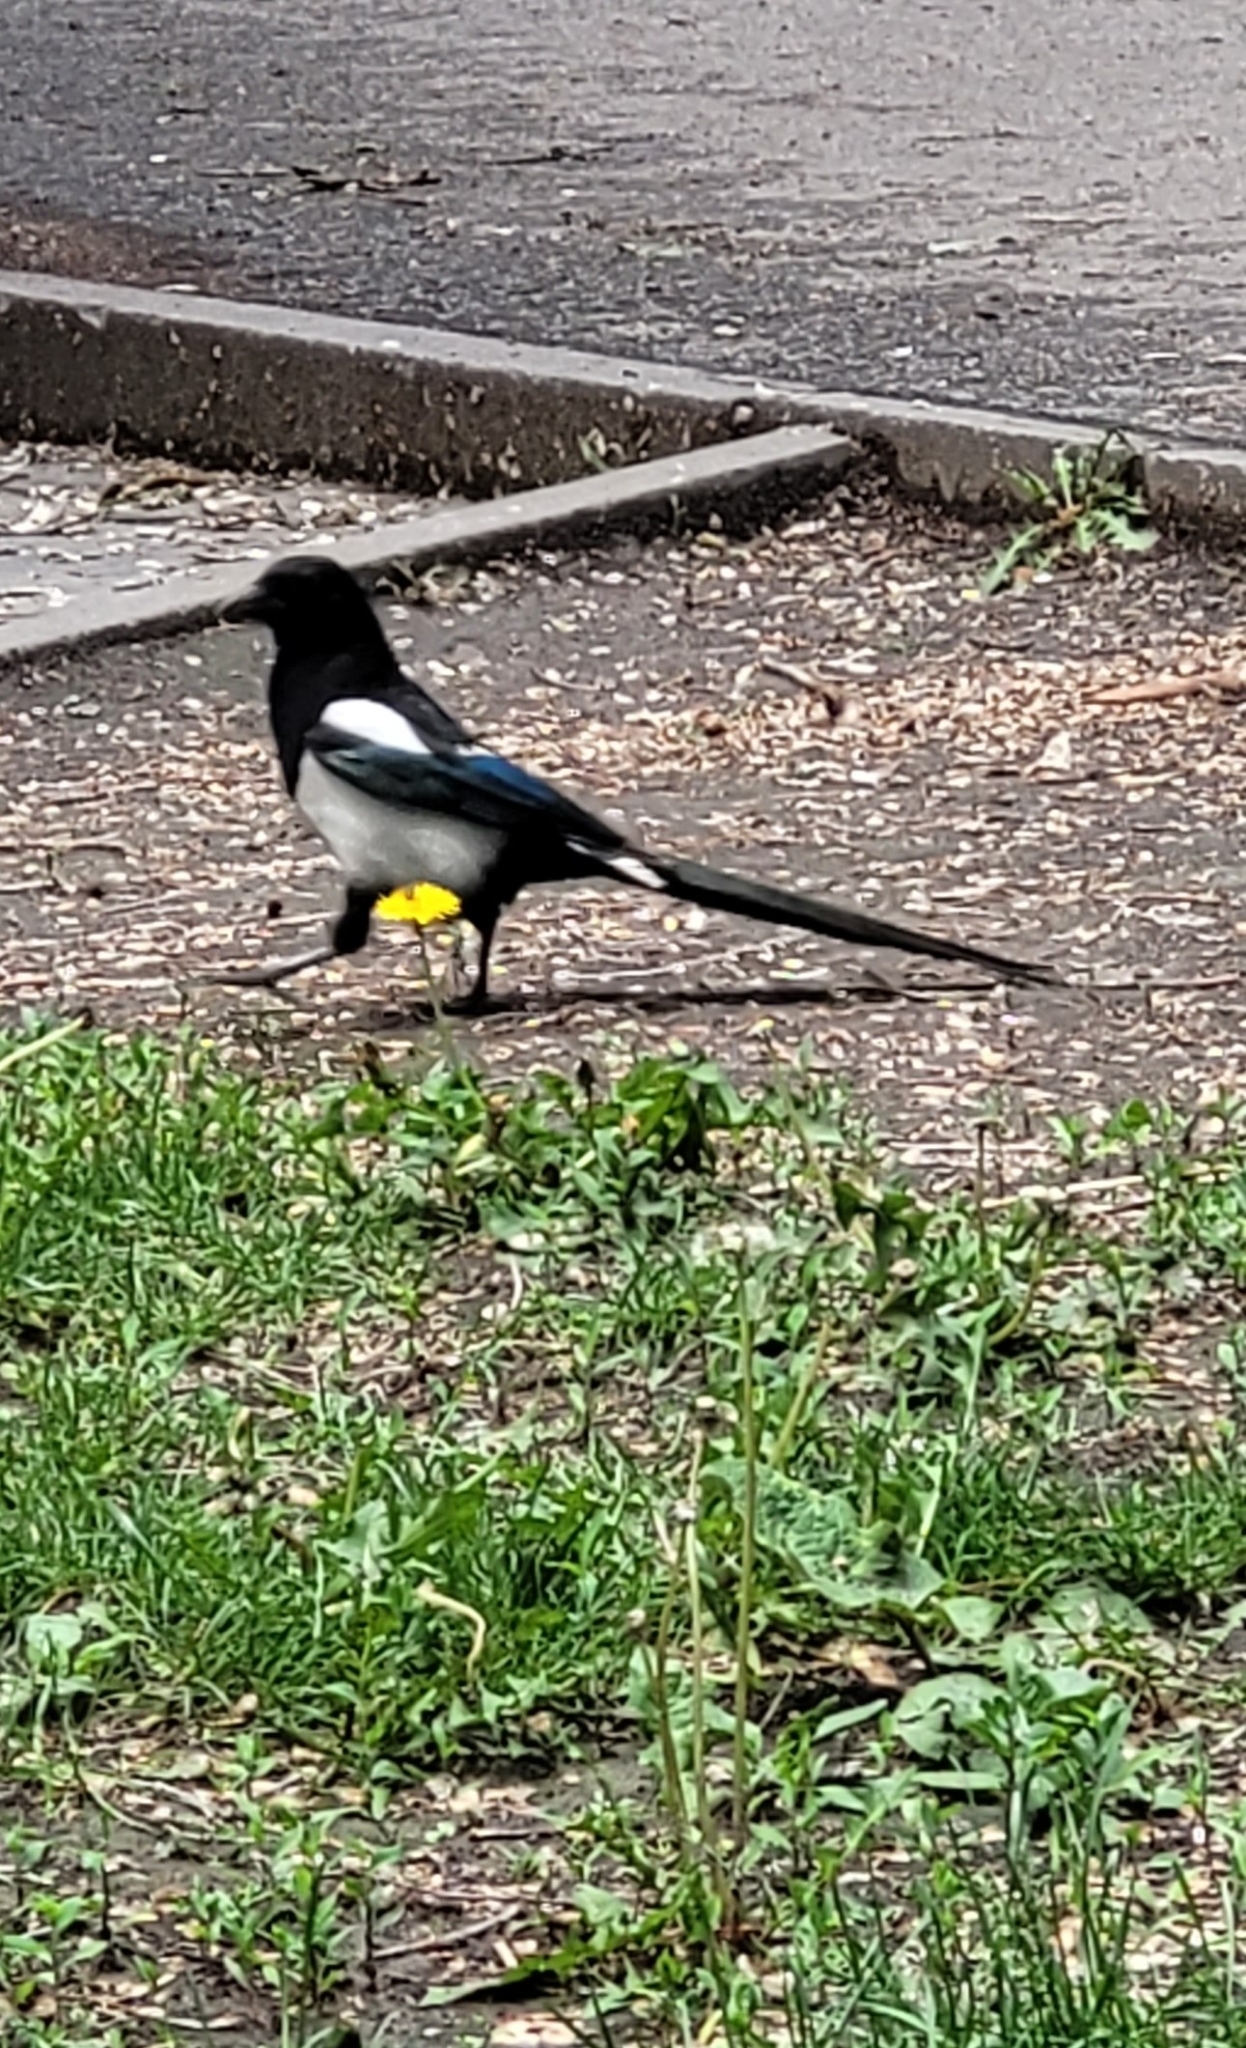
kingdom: Animalia
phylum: Chordata
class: Aves
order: Passeriformes
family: Corvidae
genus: Pica
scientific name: Pica pica
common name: Eurasian magpie
